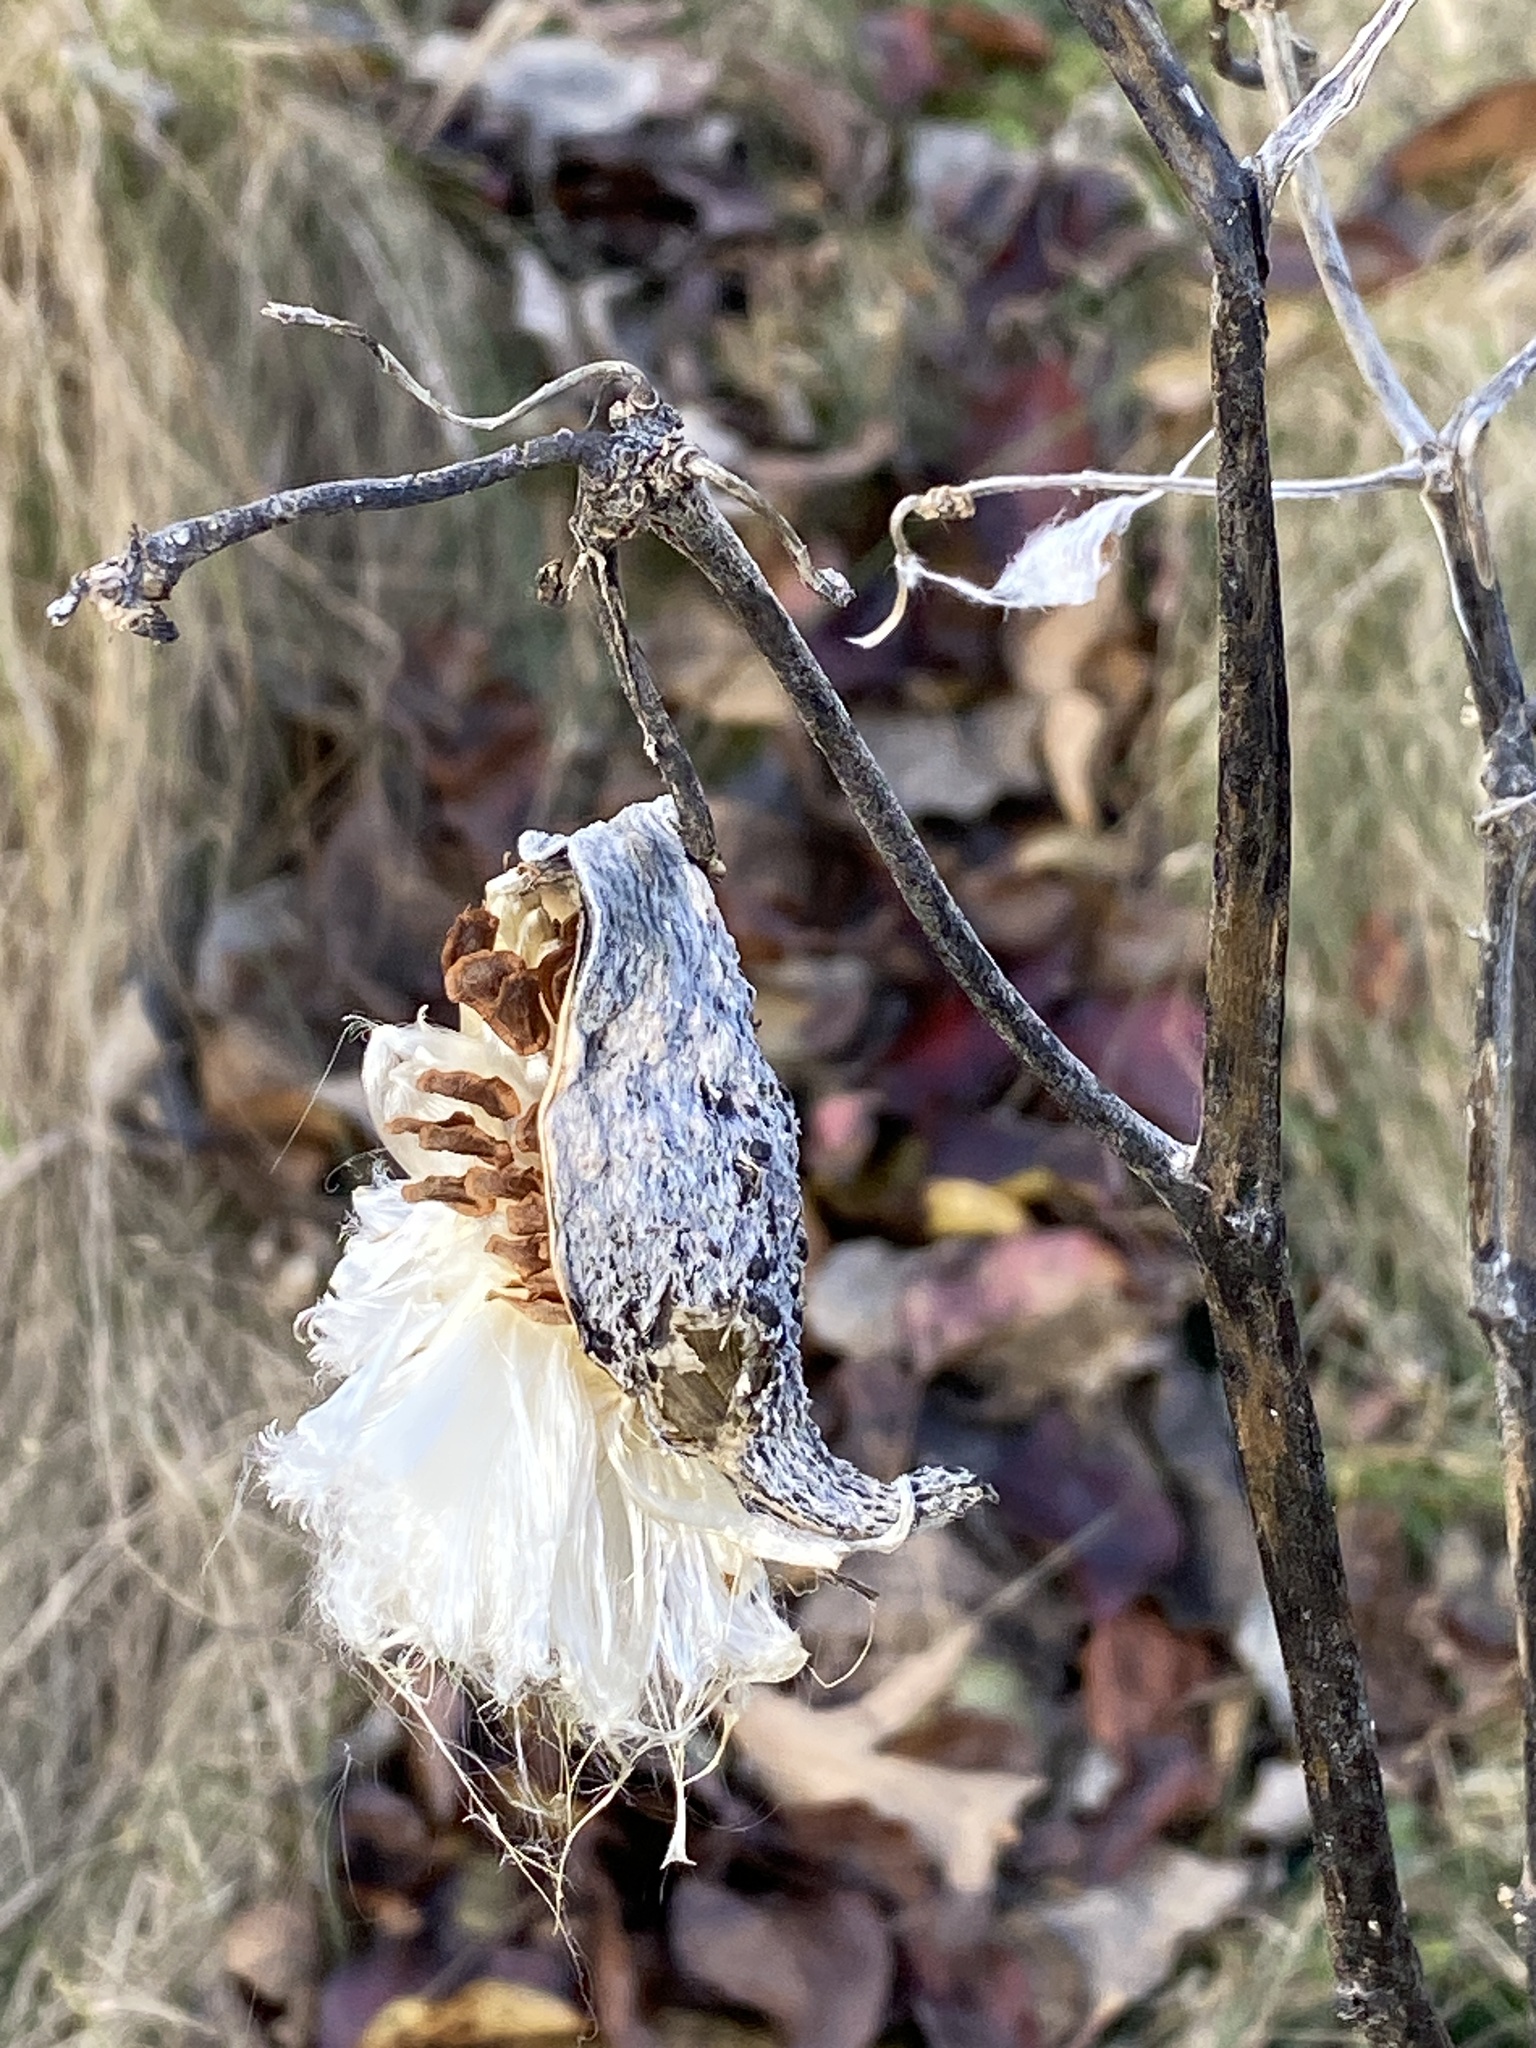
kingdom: Plantae
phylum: Tracheophyta
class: Magnoliopsida
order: Gentianales
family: Apocynaceae
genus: Asclepias
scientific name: Asclepias syriaca
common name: Common milkweed
